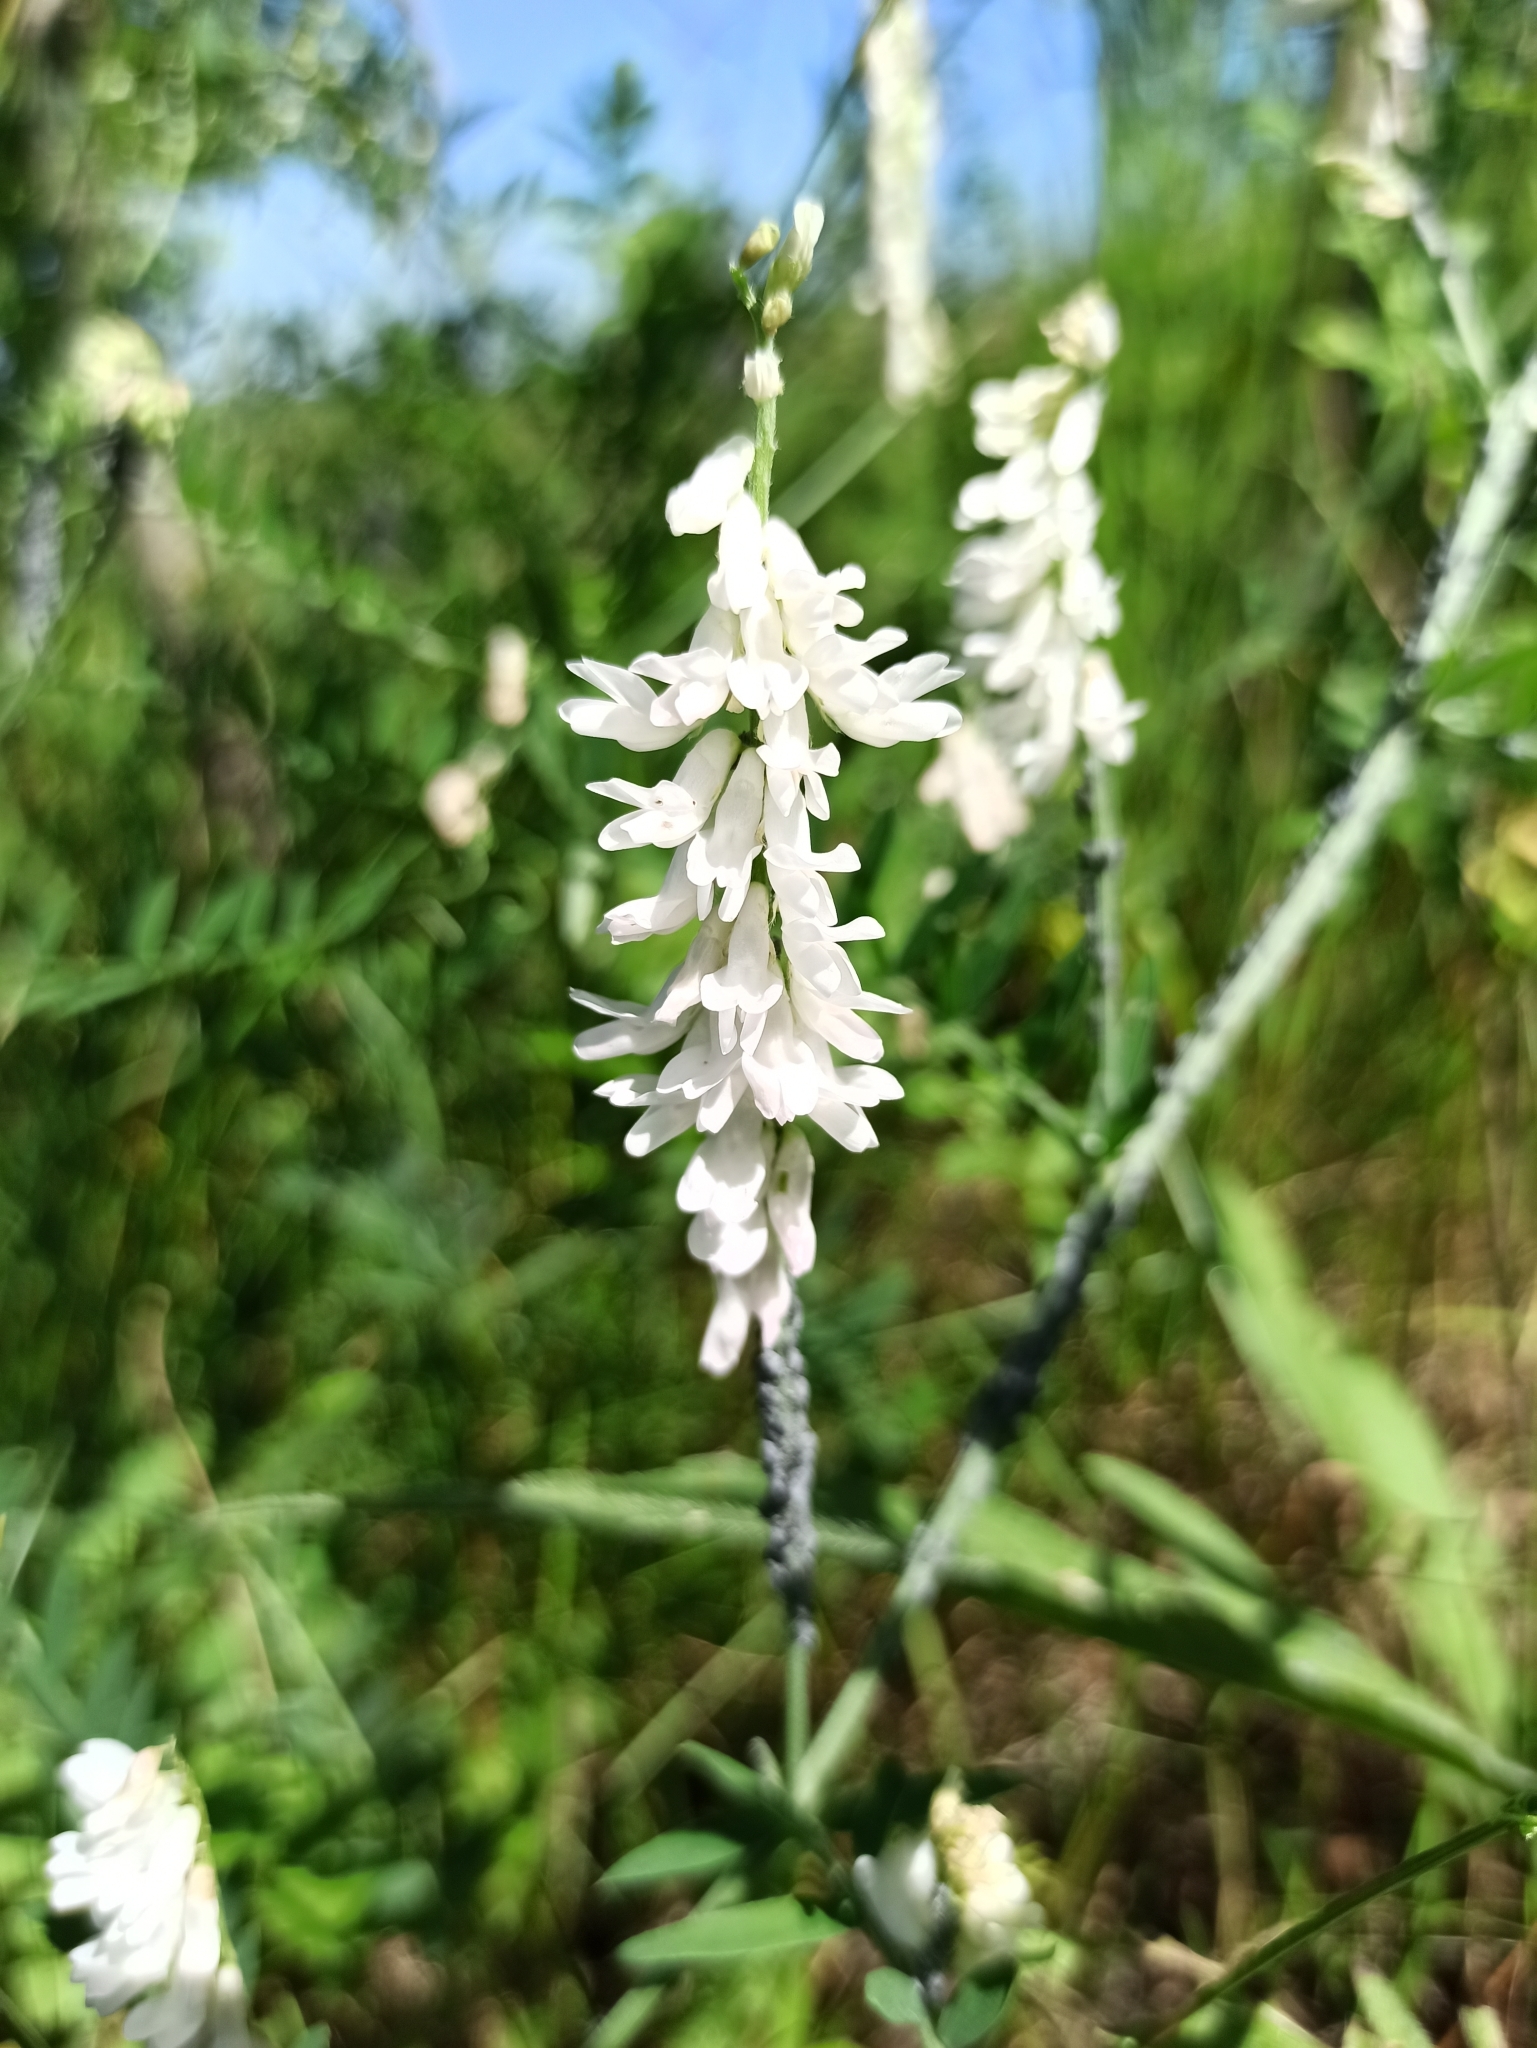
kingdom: Plantae
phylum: Tracheophyta
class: Magnoliopsida
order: Fabales
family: Fabaceae
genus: Vicia
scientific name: Vicia cracca
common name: Bird vetch
